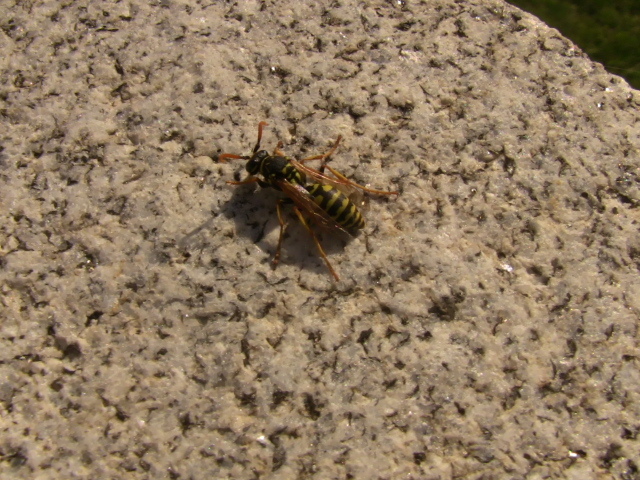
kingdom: Animalia
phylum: Arthropoda
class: Insecta
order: Hymenoptera
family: Eumenidae
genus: Polistes
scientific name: Polistes dominula
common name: Paper wasp
